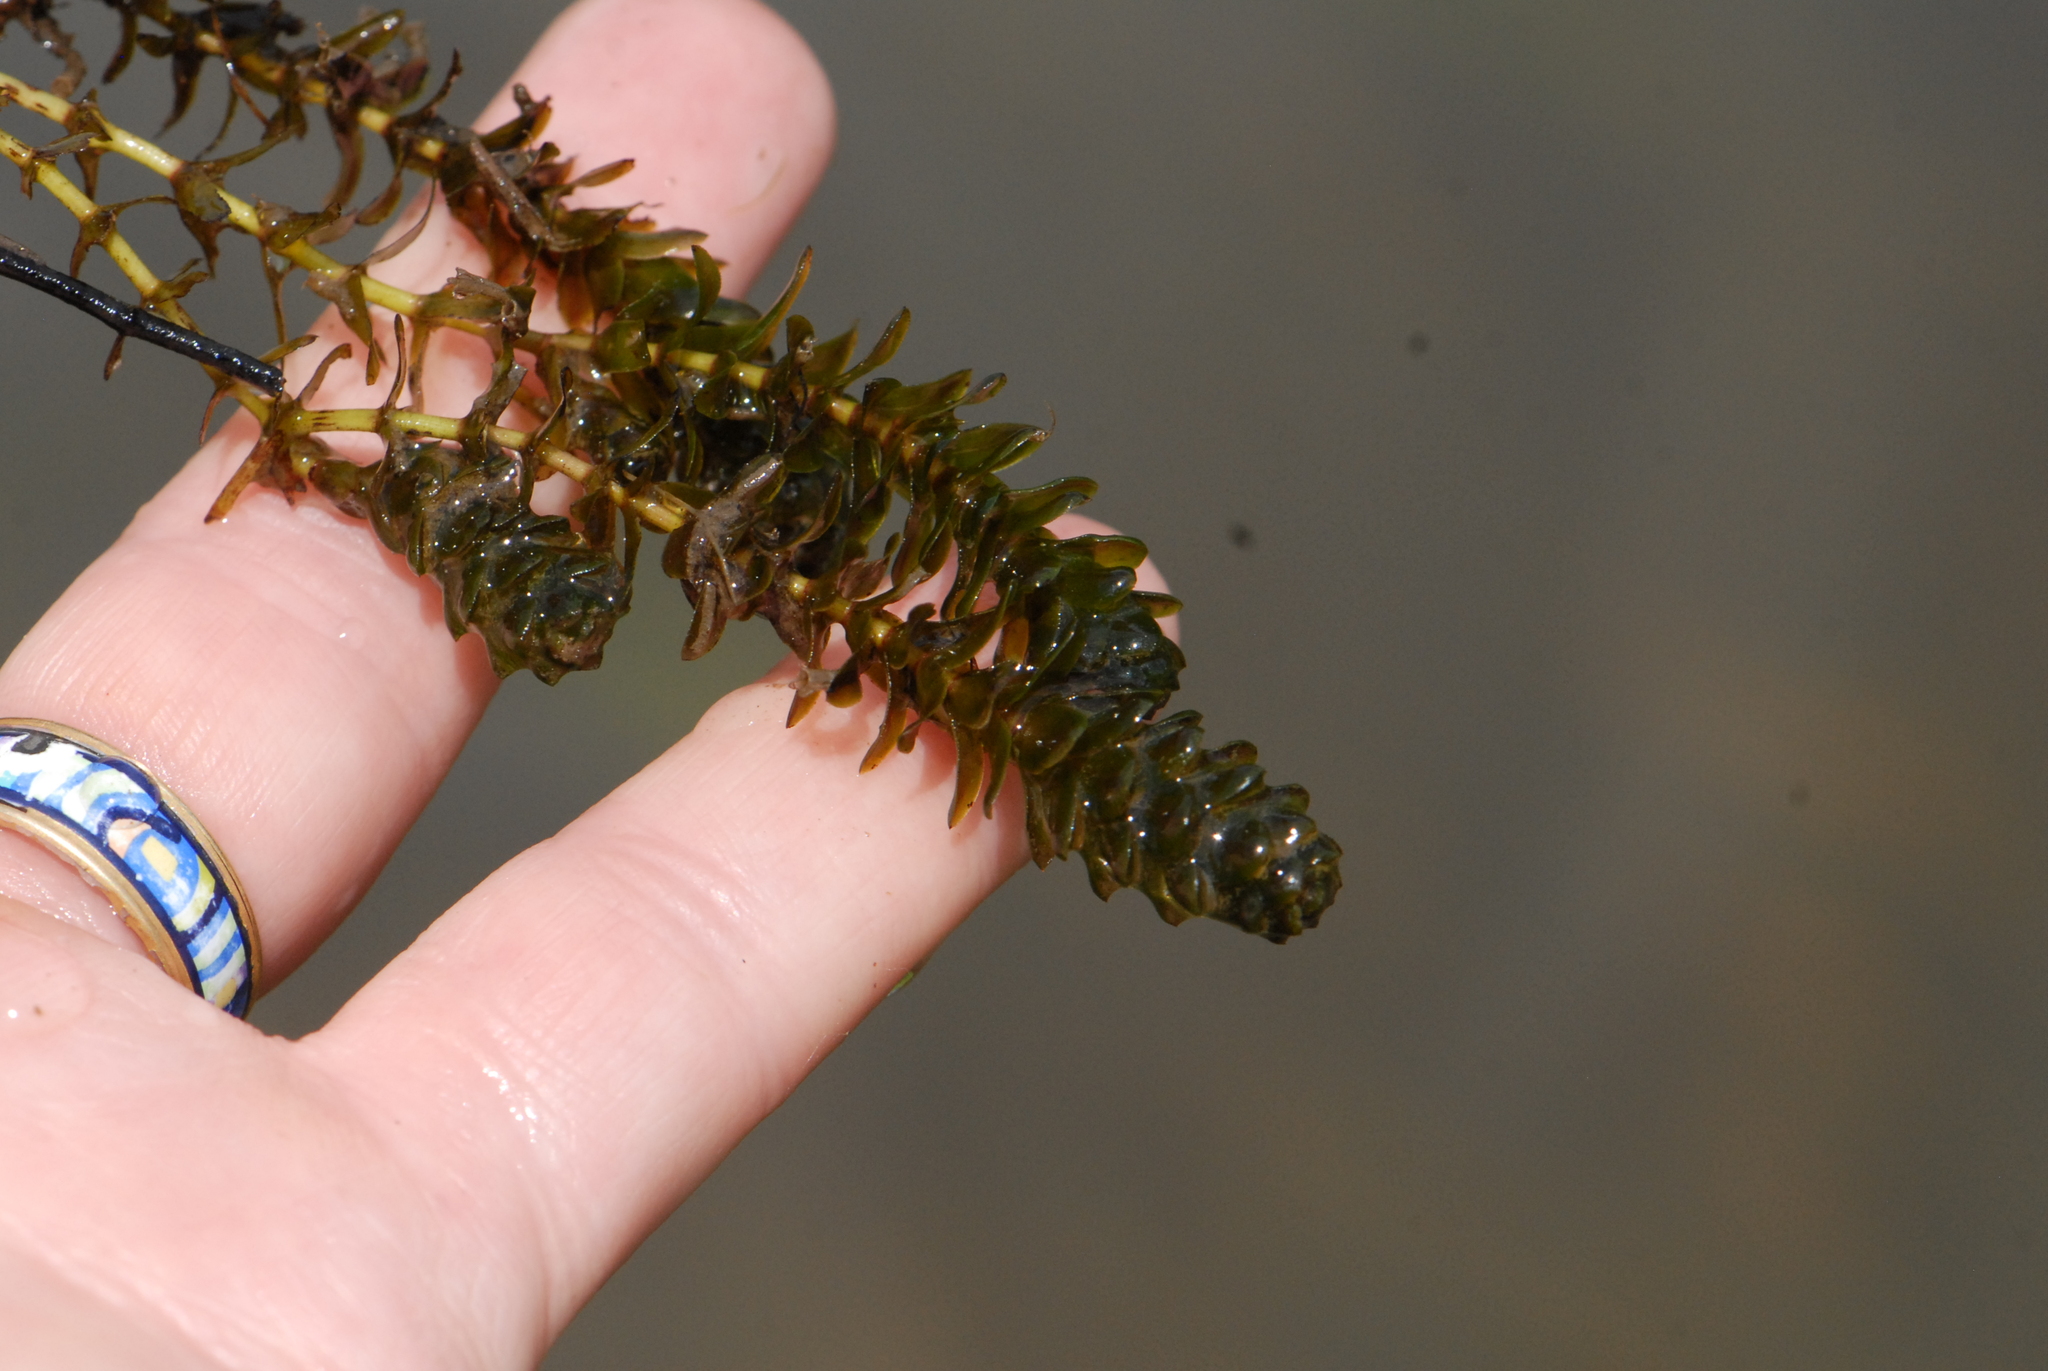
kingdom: Plantae
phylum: Tracheophyta
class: Liliopsida
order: Alismatales
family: Hydrocharitaceae
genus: Elodea
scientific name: Elodea canadensis
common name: Canadian waterweed
